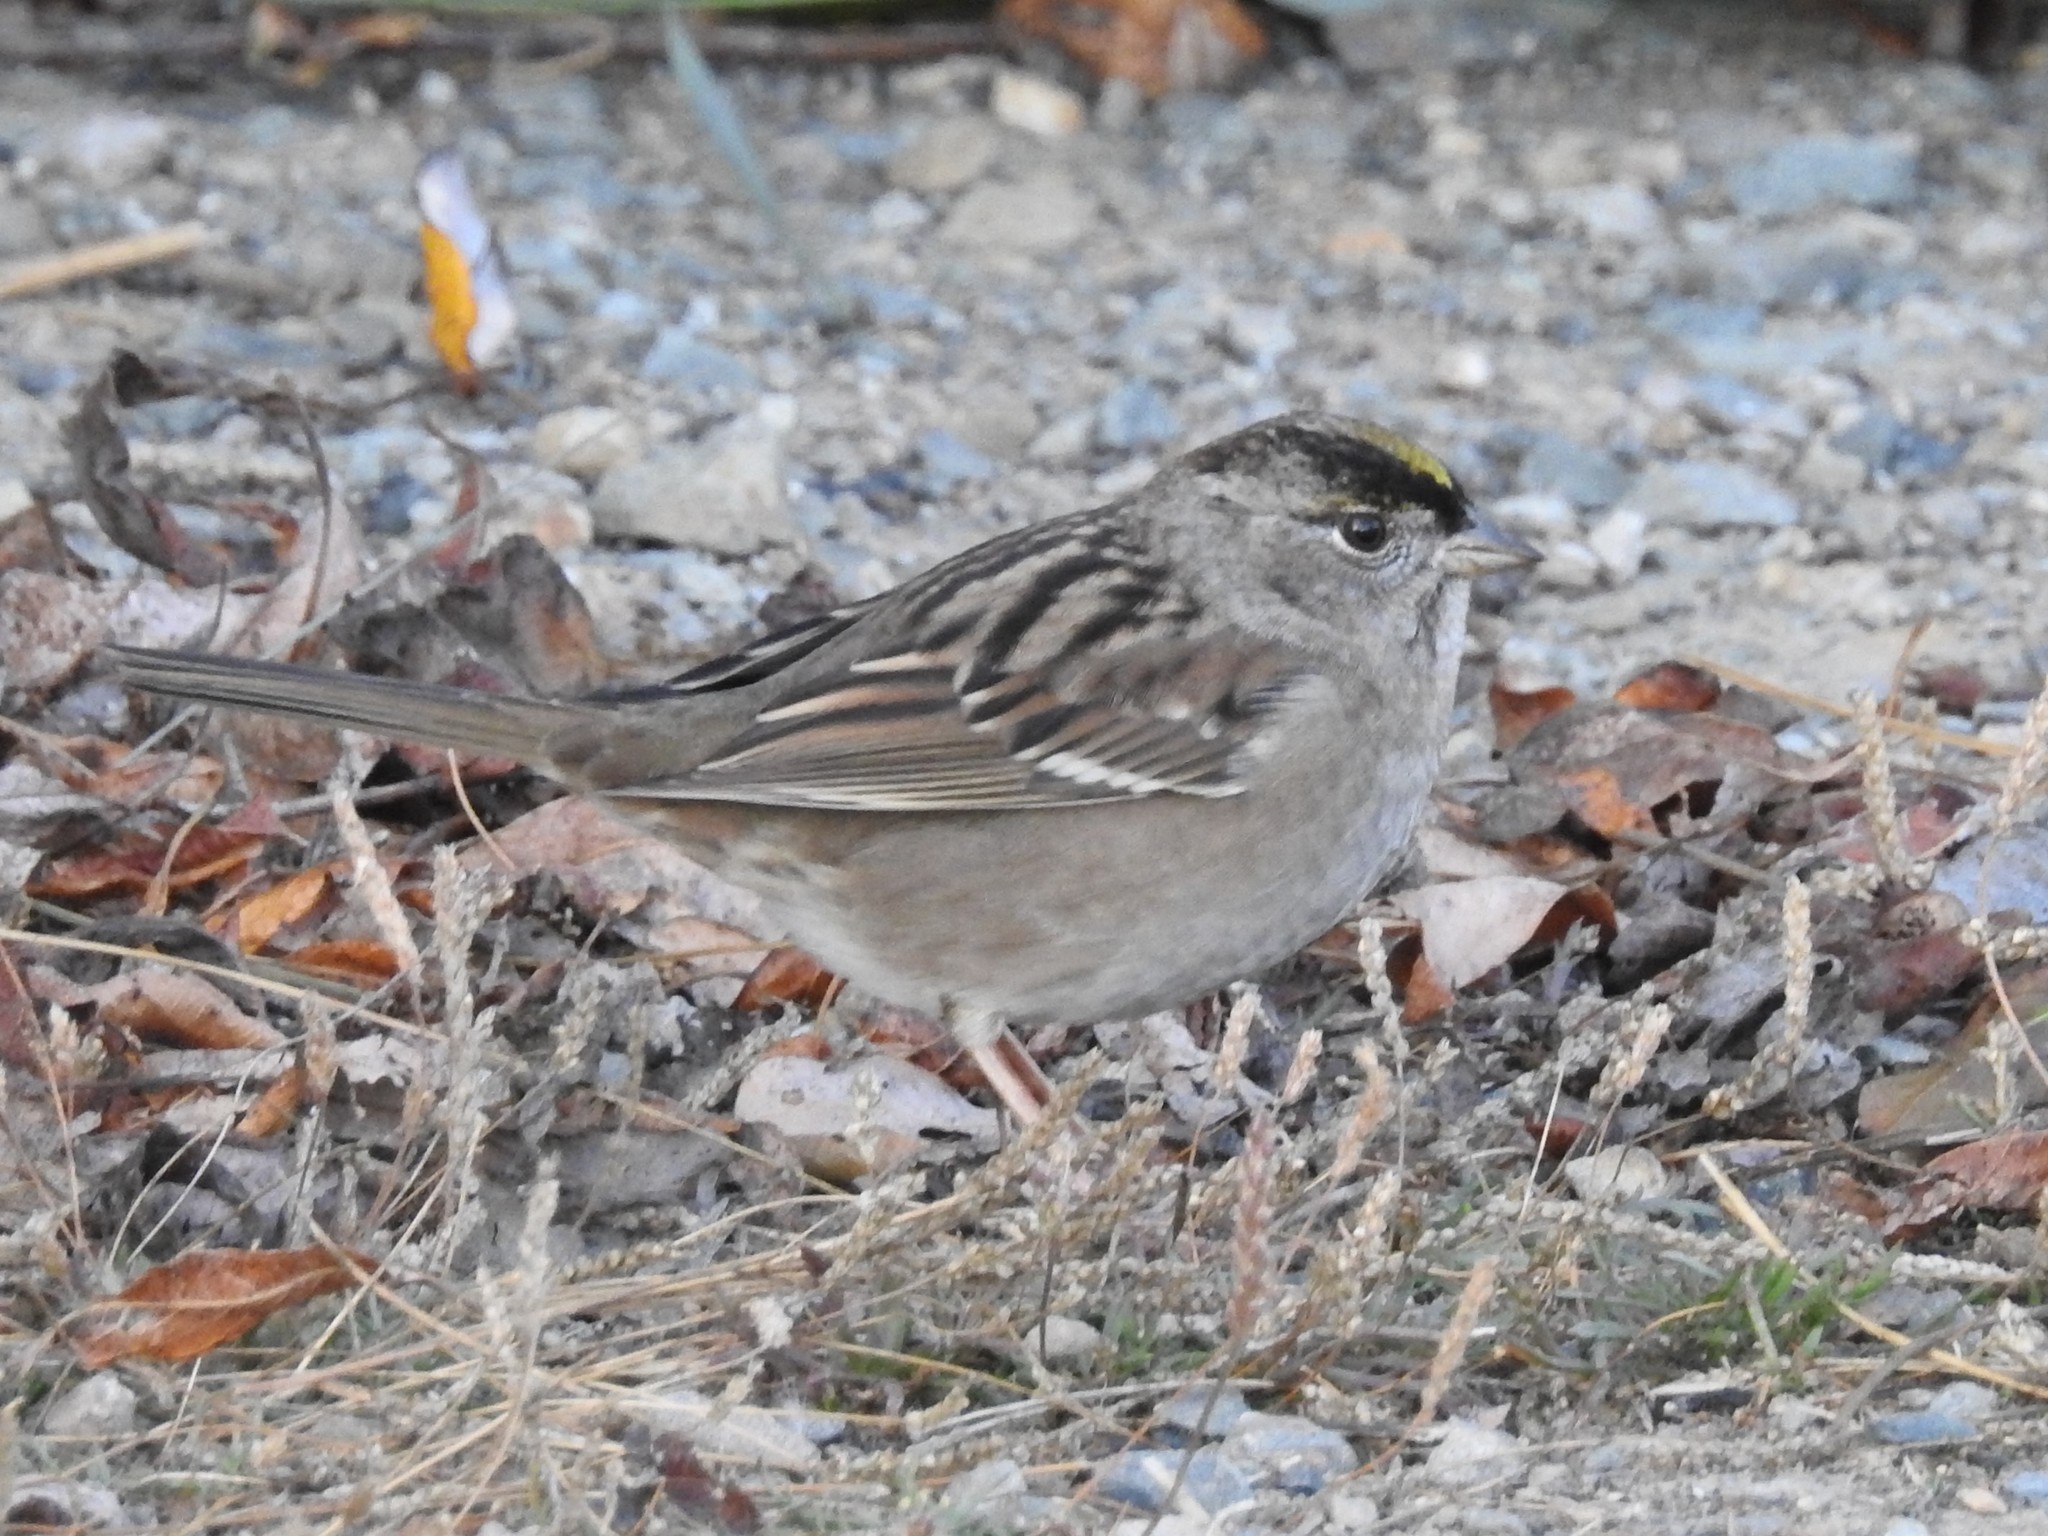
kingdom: Animalia
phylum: Chordata
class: Aves
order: Passeriformes
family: Passerellidae
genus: Zonotrichia
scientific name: Zonotrichia atricapilla
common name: Golden-crowned sparrow
